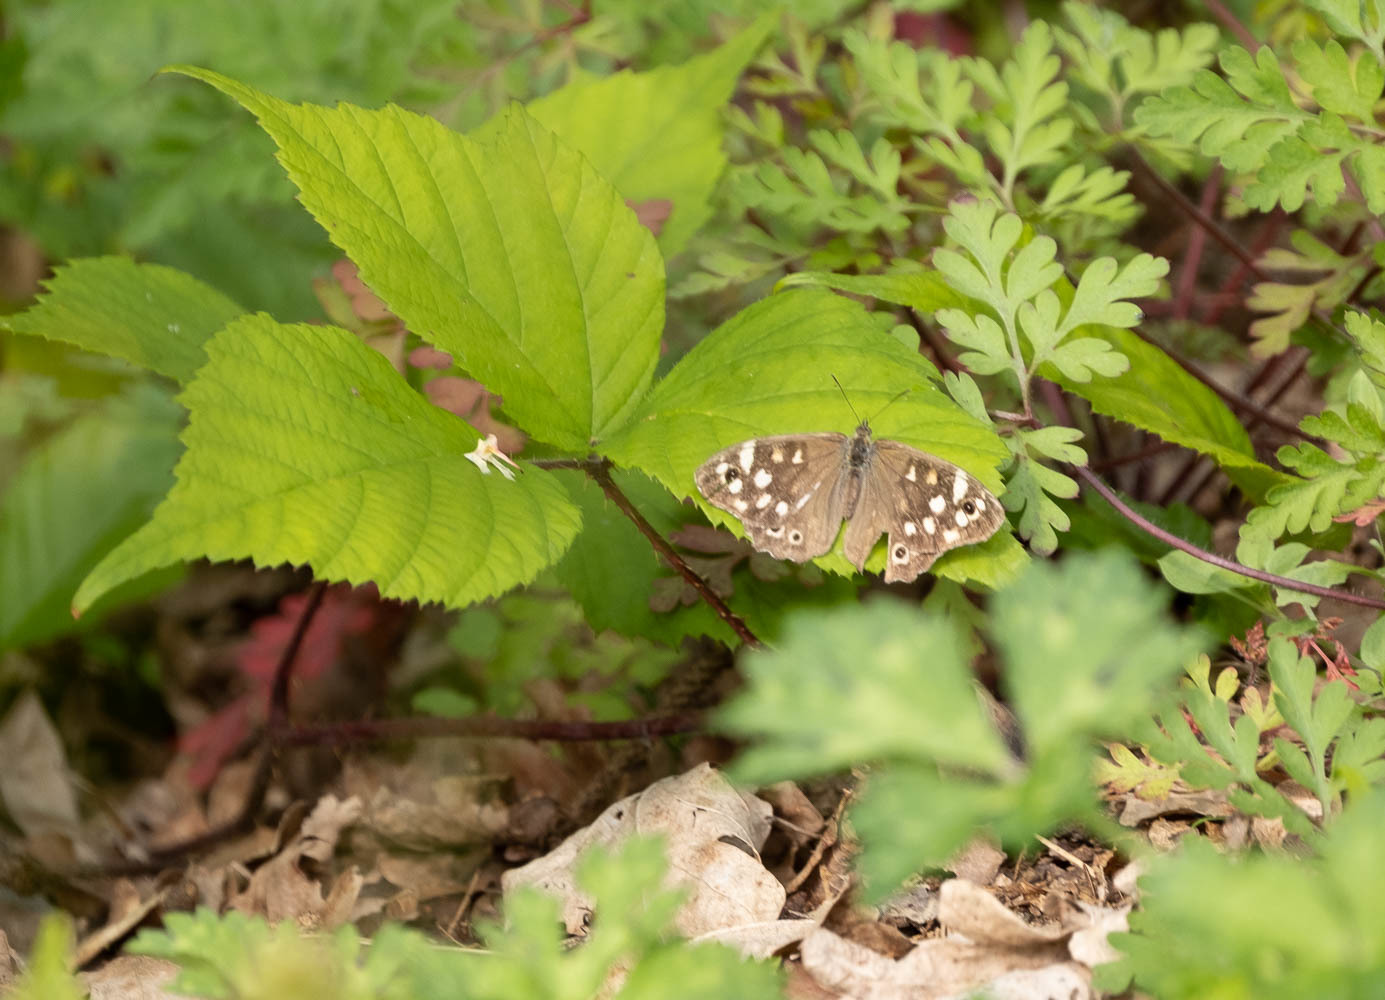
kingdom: Animalia
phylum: Arthropoda
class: Insecta
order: Lepidoptera
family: Nymphalidae
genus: Pararge
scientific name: Pararge aegeria
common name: Speckled wood
